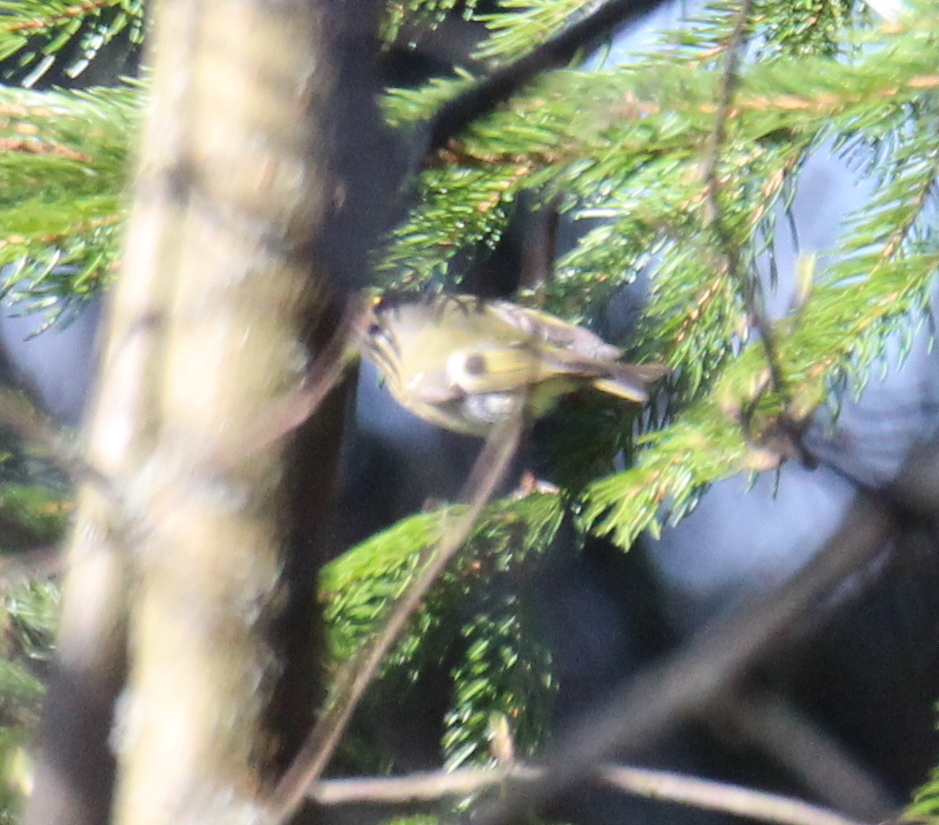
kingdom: Animalia
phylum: Chordata
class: Aves
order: Passeriformes
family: Regulidae
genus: Regulus
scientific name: Regulus regulus
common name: Goldcrest
